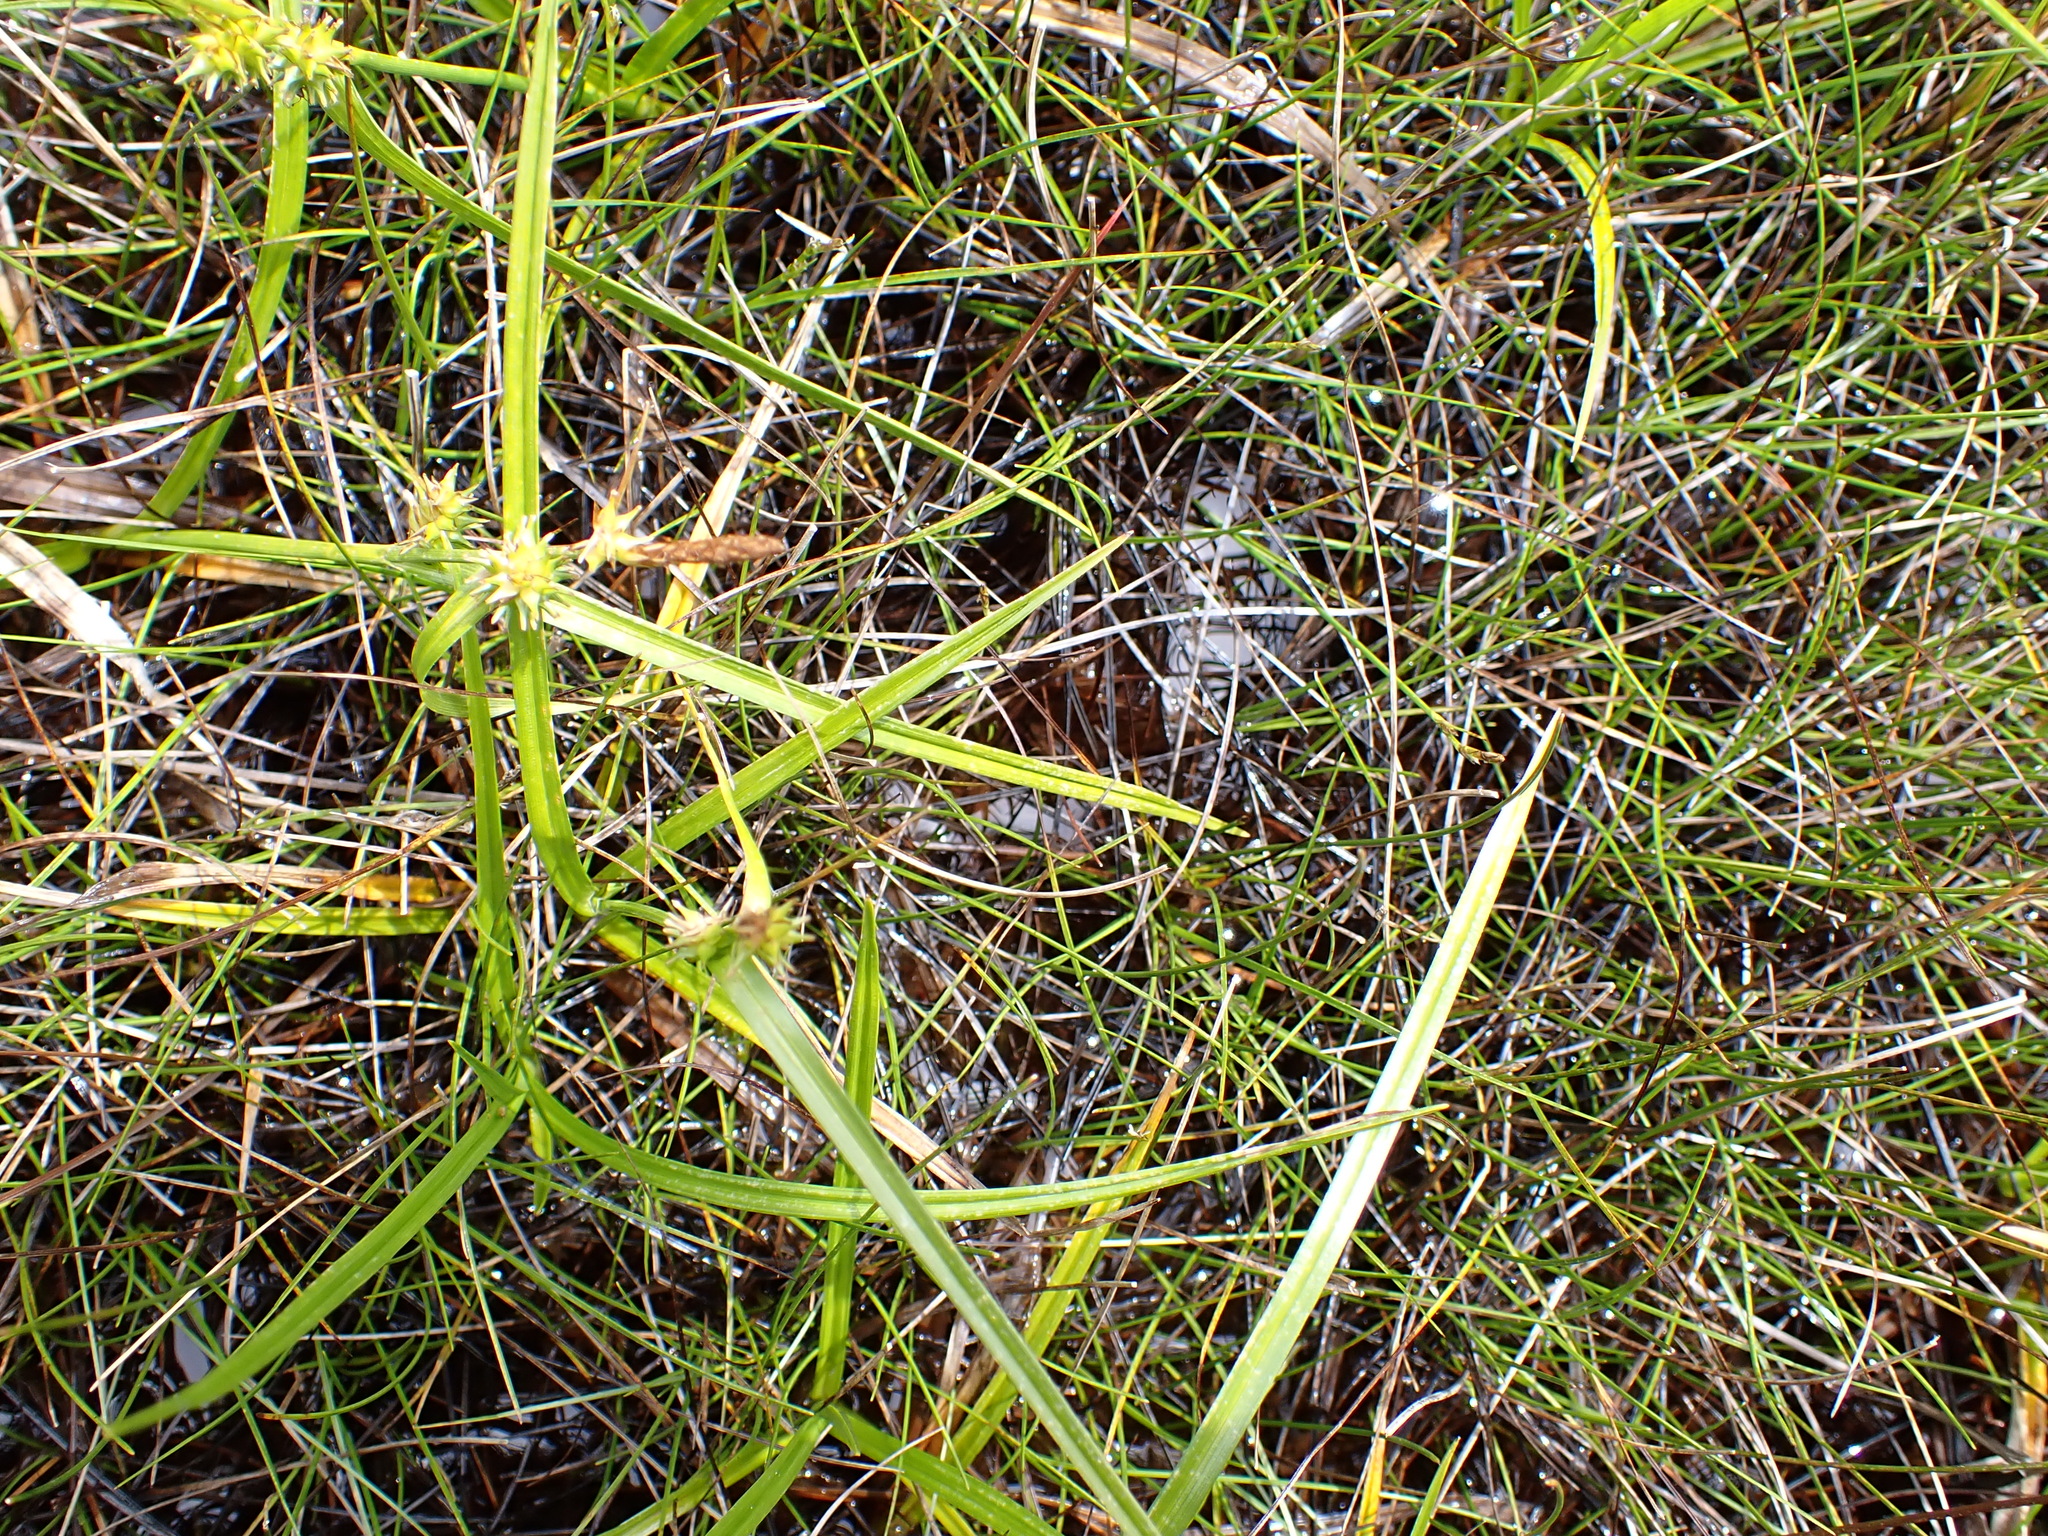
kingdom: Plantae
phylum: Tracheophyta
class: Liliopsida
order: Poales
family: Cyperaceae
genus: Carex
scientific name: Carex demissa
